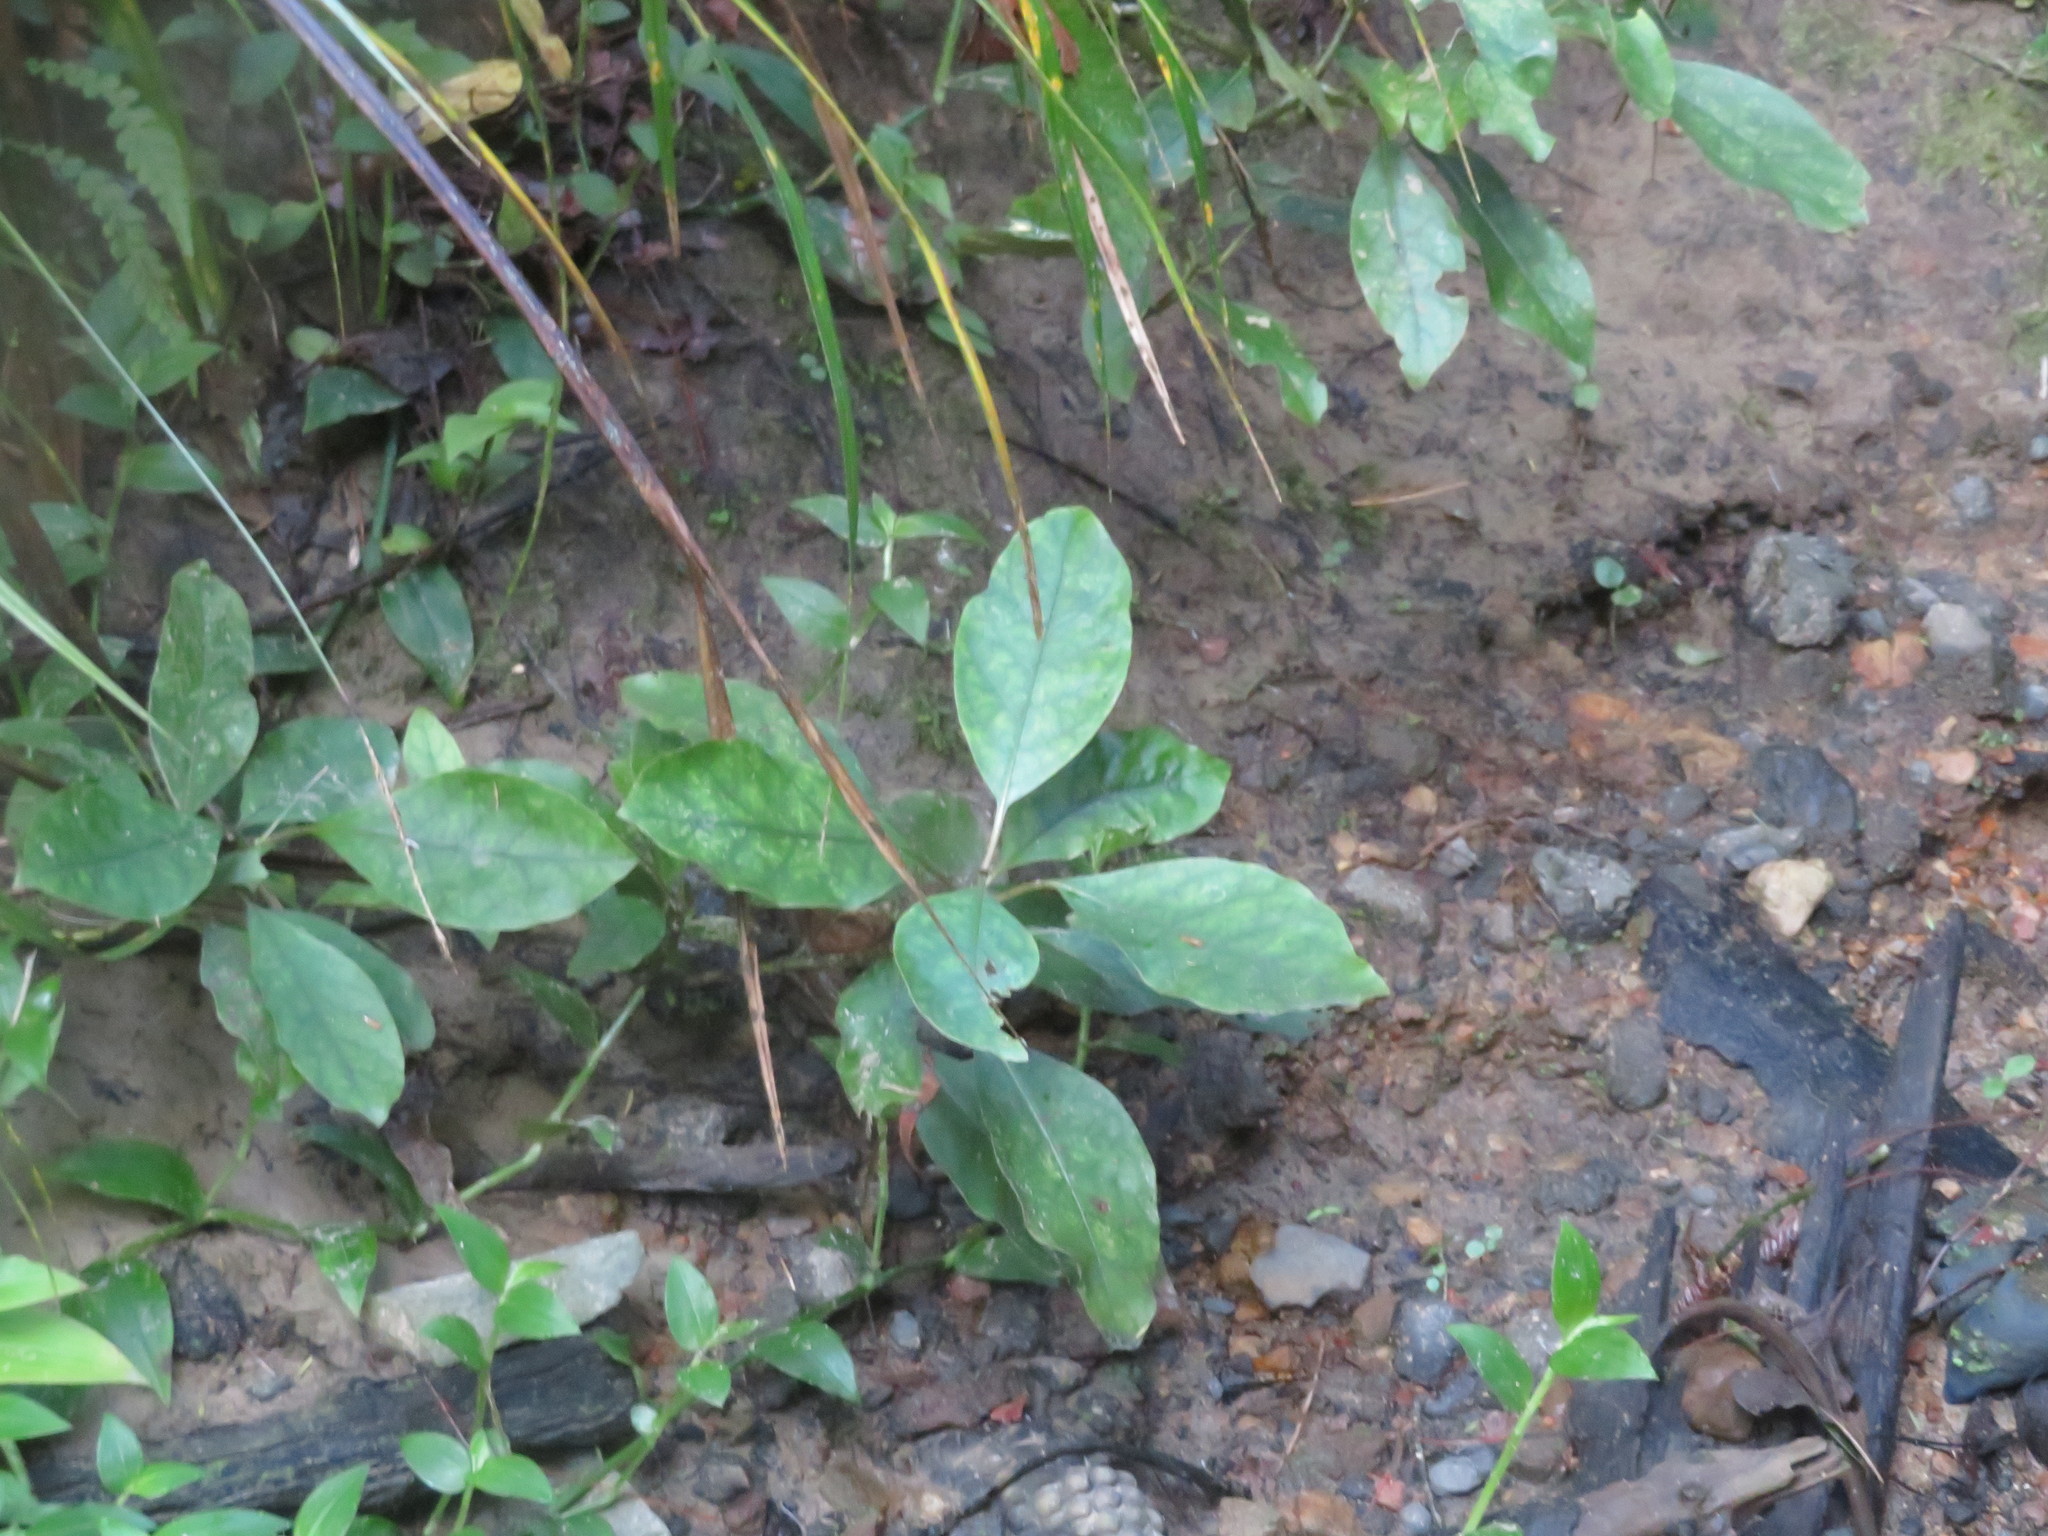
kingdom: Plantae
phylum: Tracheophyta
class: Magnoliopsida
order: Gentianales
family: Rubiaceae
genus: Coprosma
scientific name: Coprosma autumnalis
